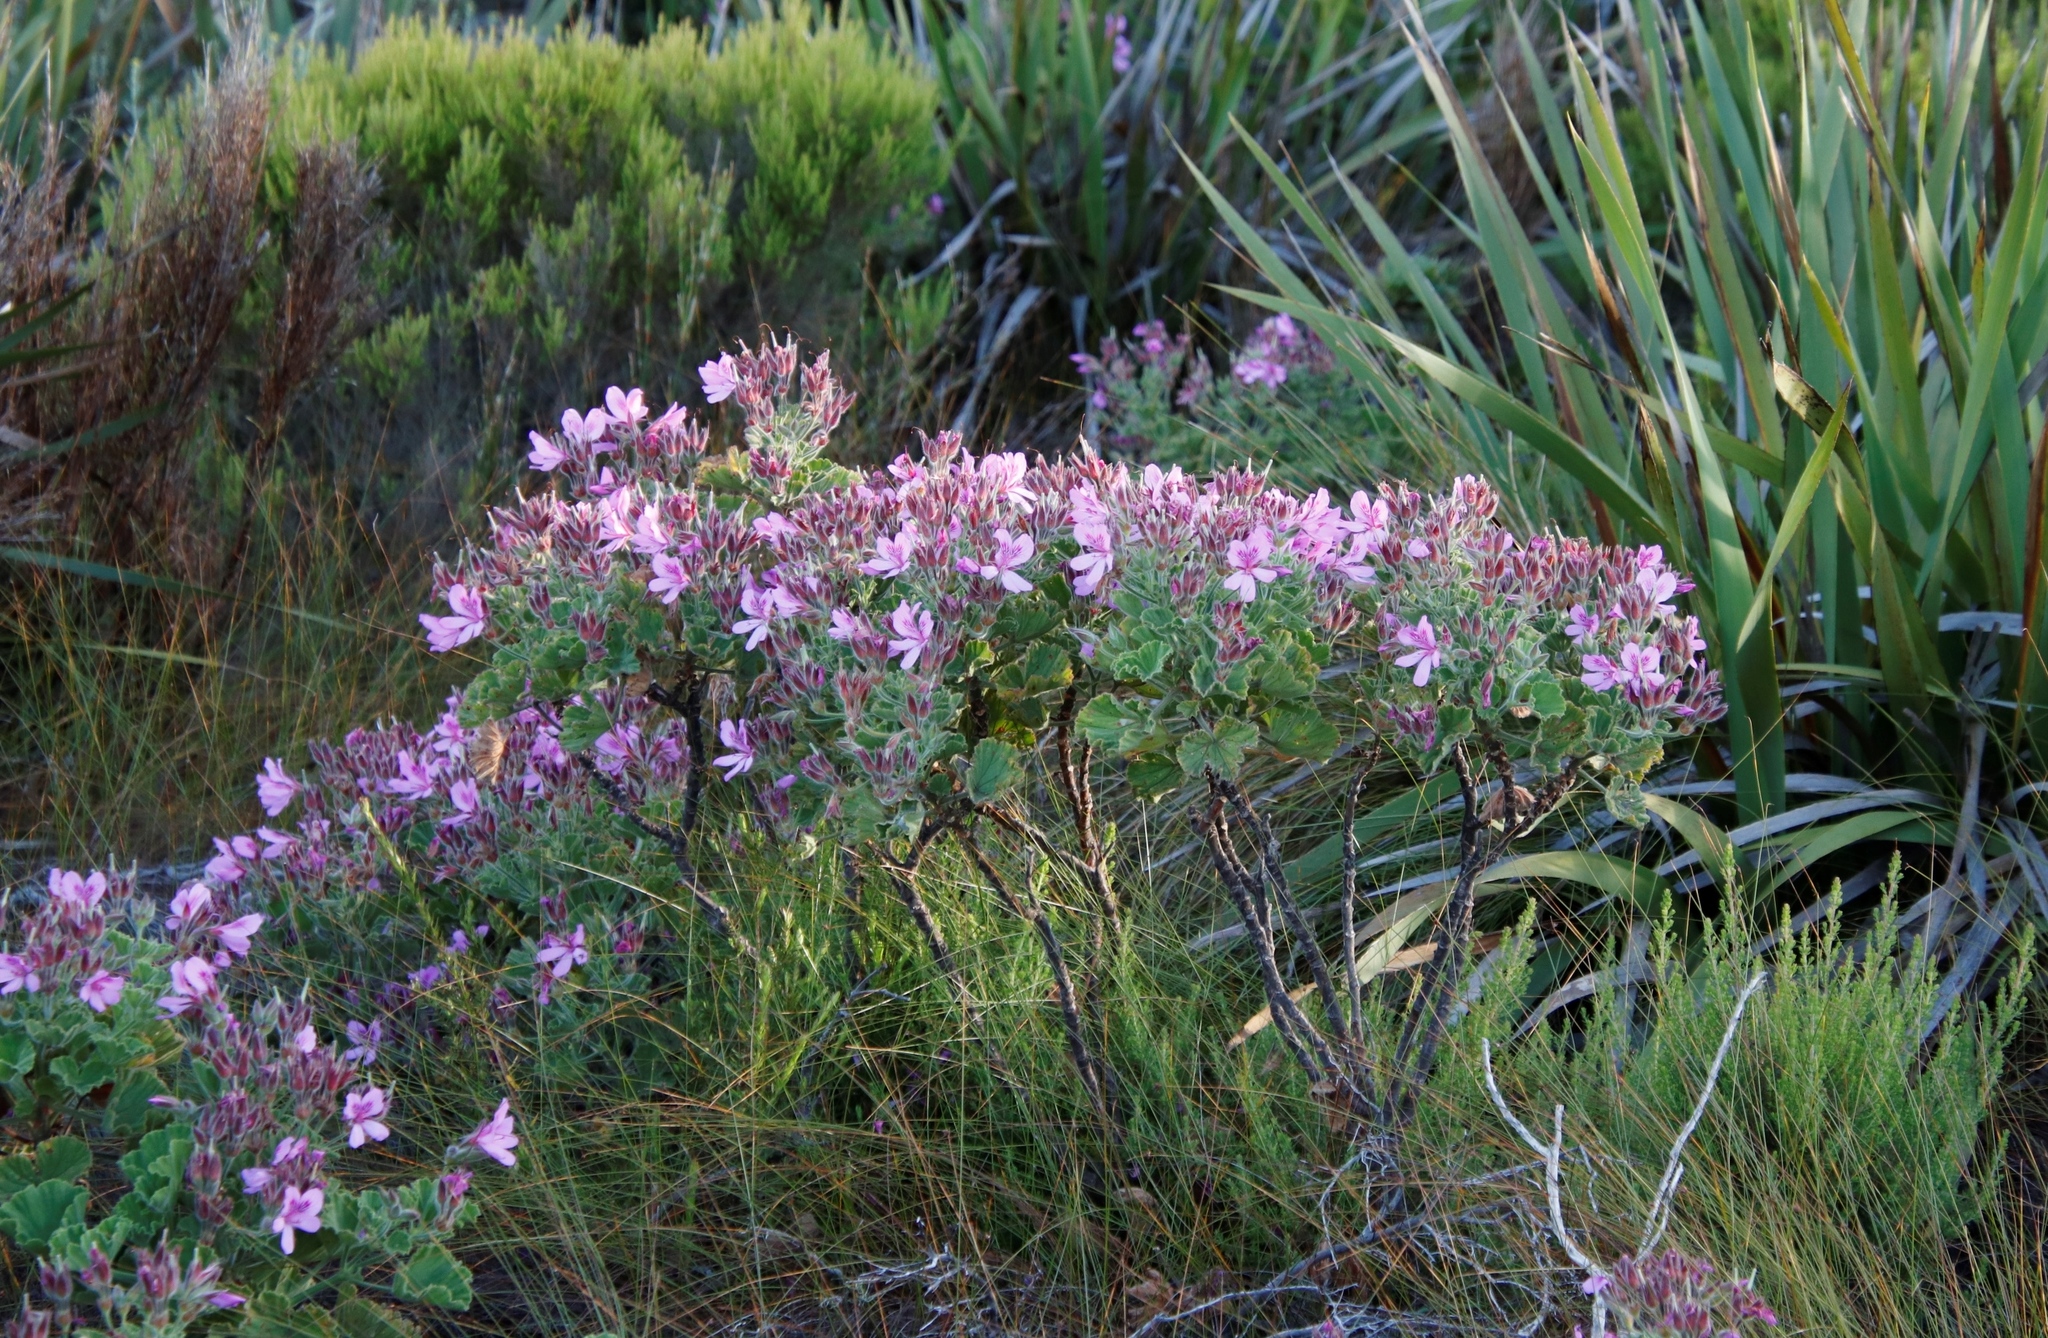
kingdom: Plantae
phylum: Tracheophyta
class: Magnoliopsida
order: Geraniales
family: Geraniaceae
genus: Pelargonium
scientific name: Pelargonium cucullatum
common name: Tree pelargonium
